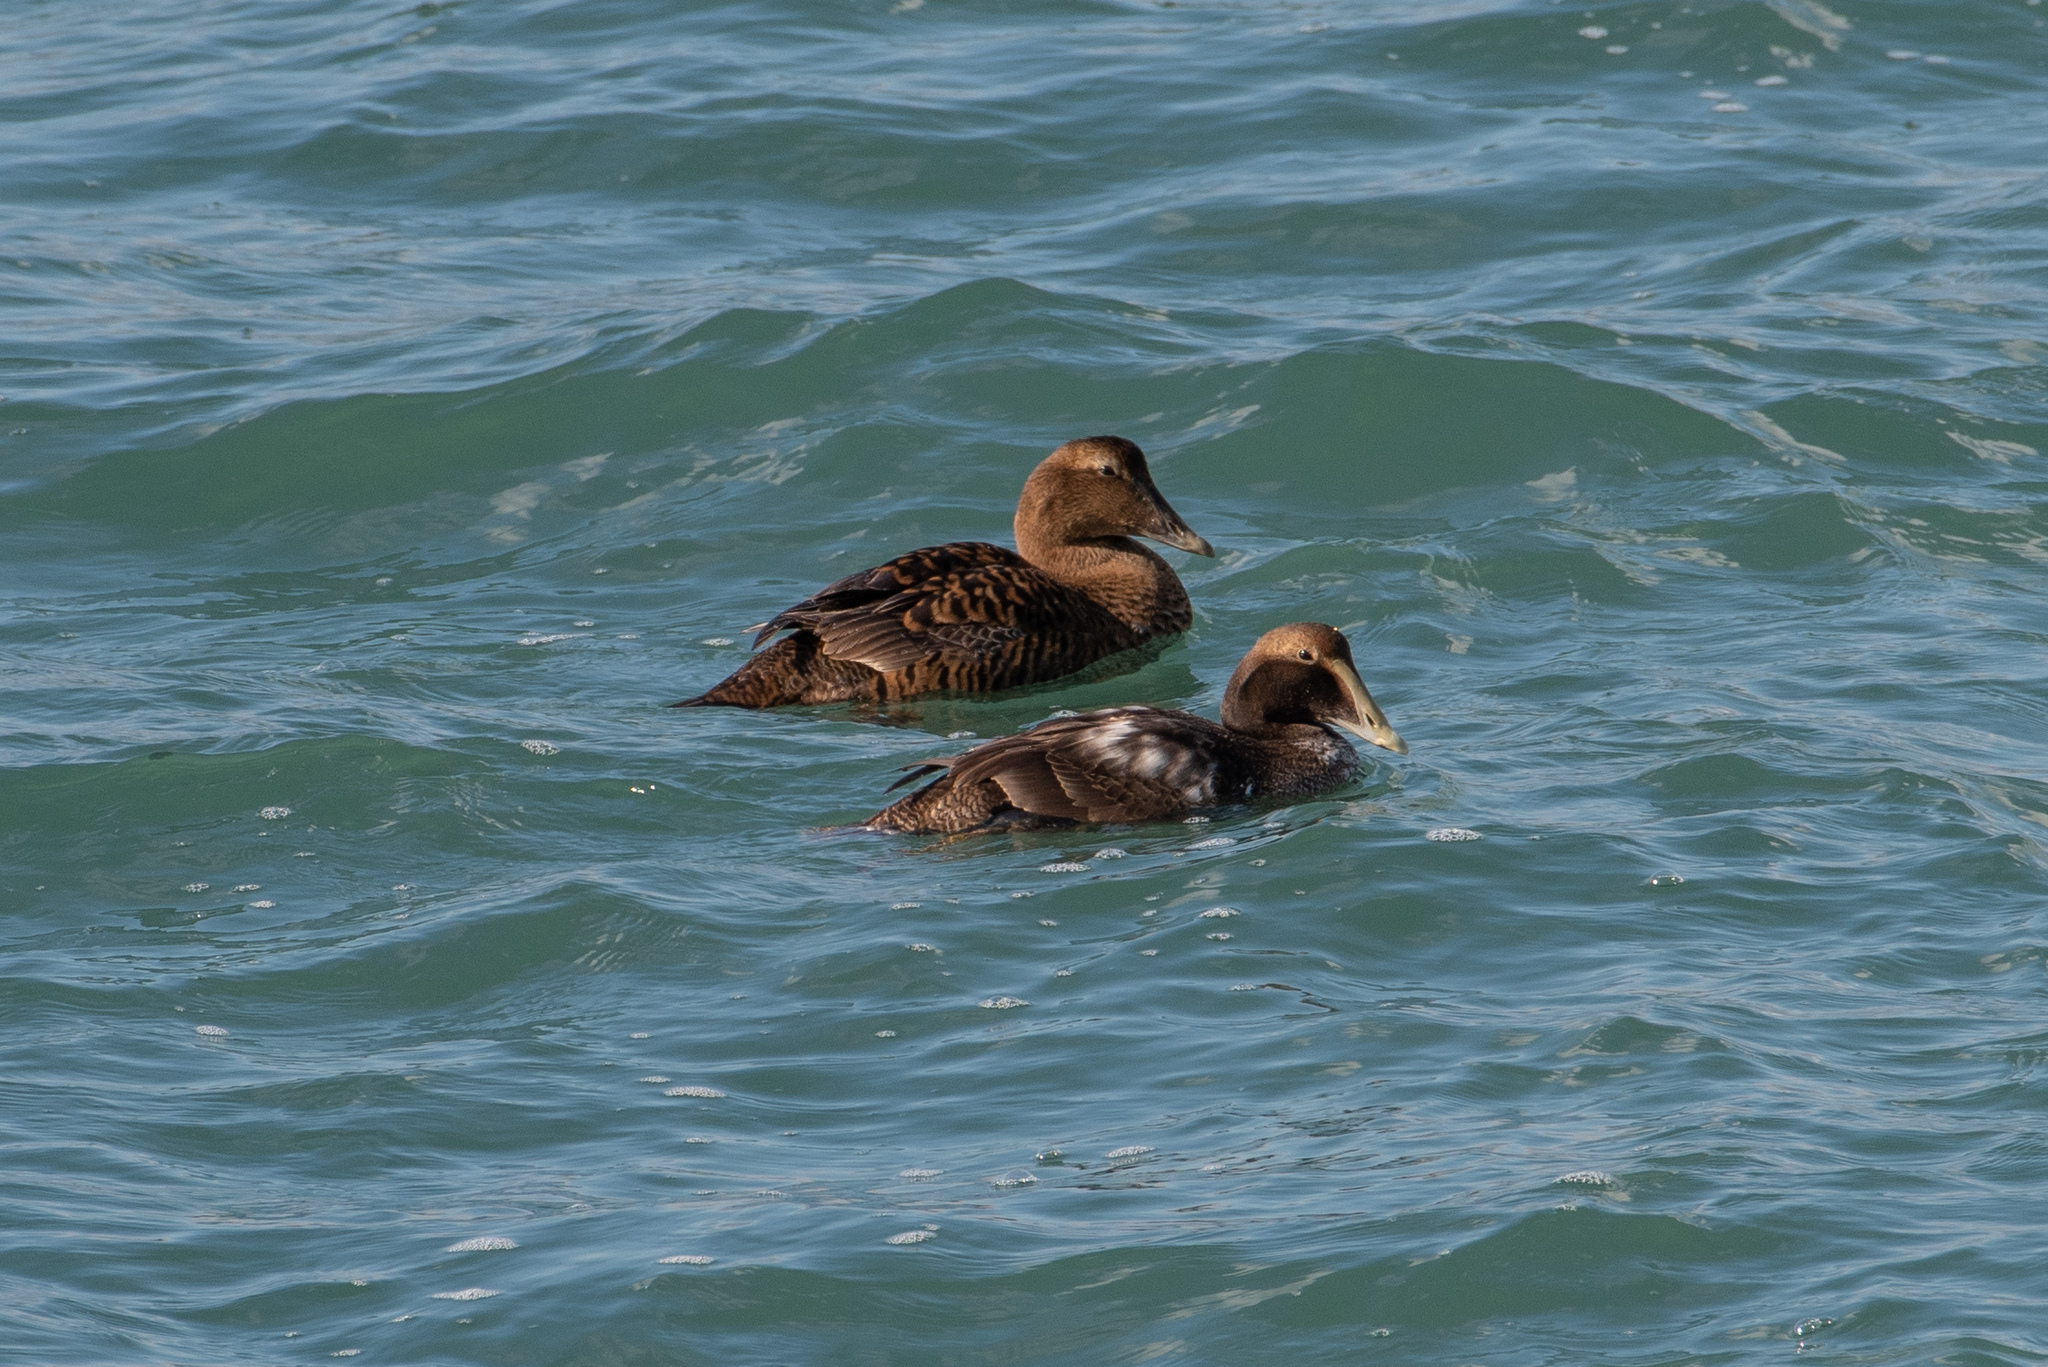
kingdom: Animalia
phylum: Chordata
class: Aves
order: Anseriformes
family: Anatidae
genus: Somateria
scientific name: Somateria mollissima
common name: Common eider
